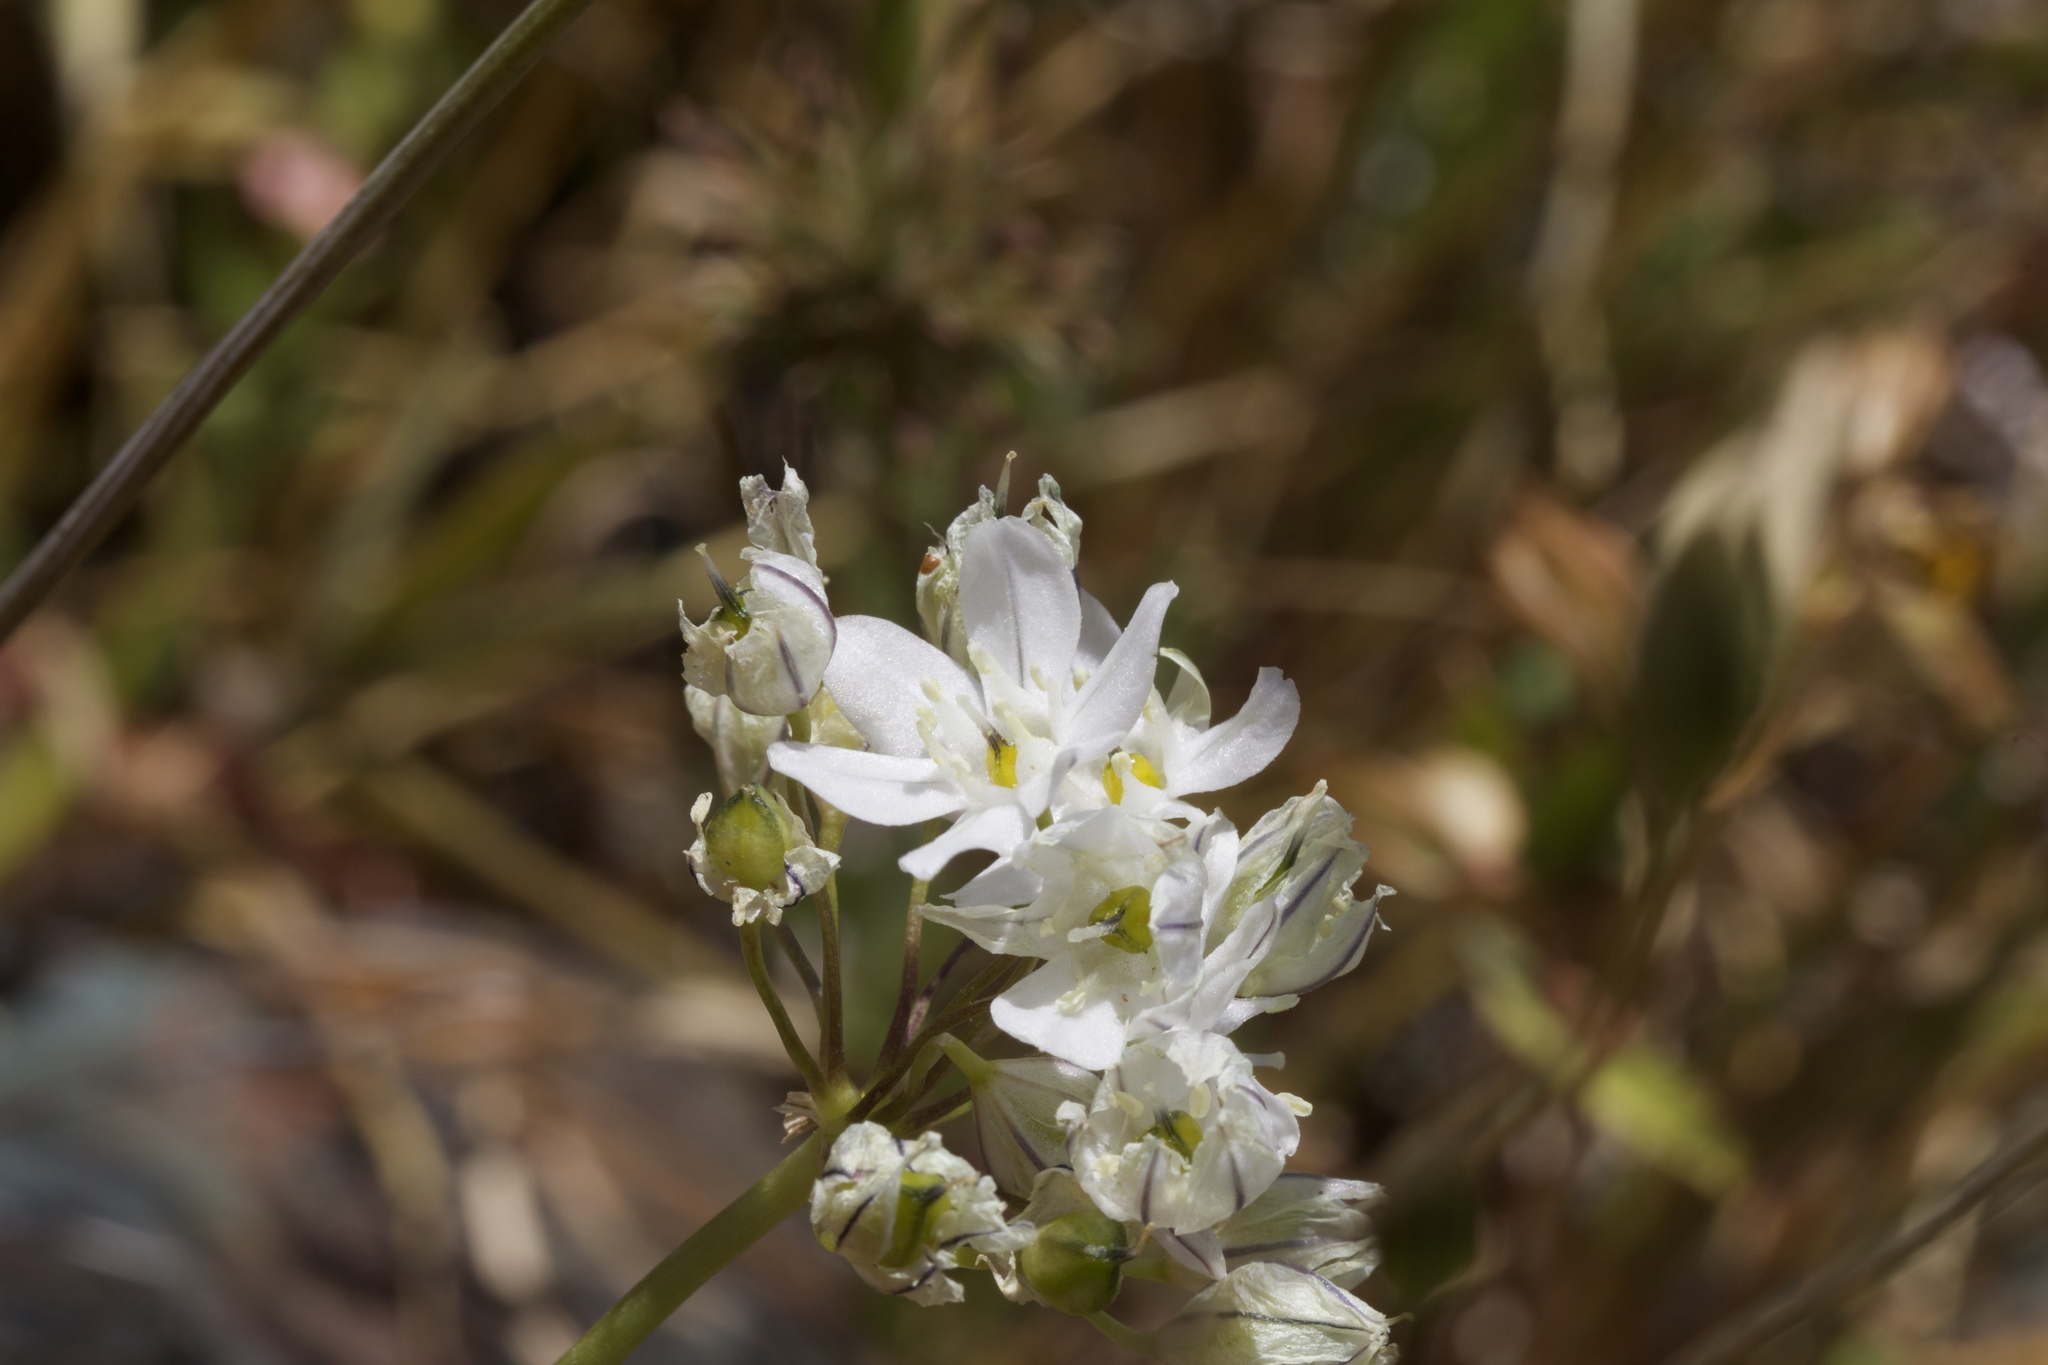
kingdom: Plantae
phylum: Tracheophyta
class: Liliopsida
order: Asparagales
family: Asparagaceae
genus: Triteleia
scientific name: Triteleia hyacinthina
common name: White brodiaea
